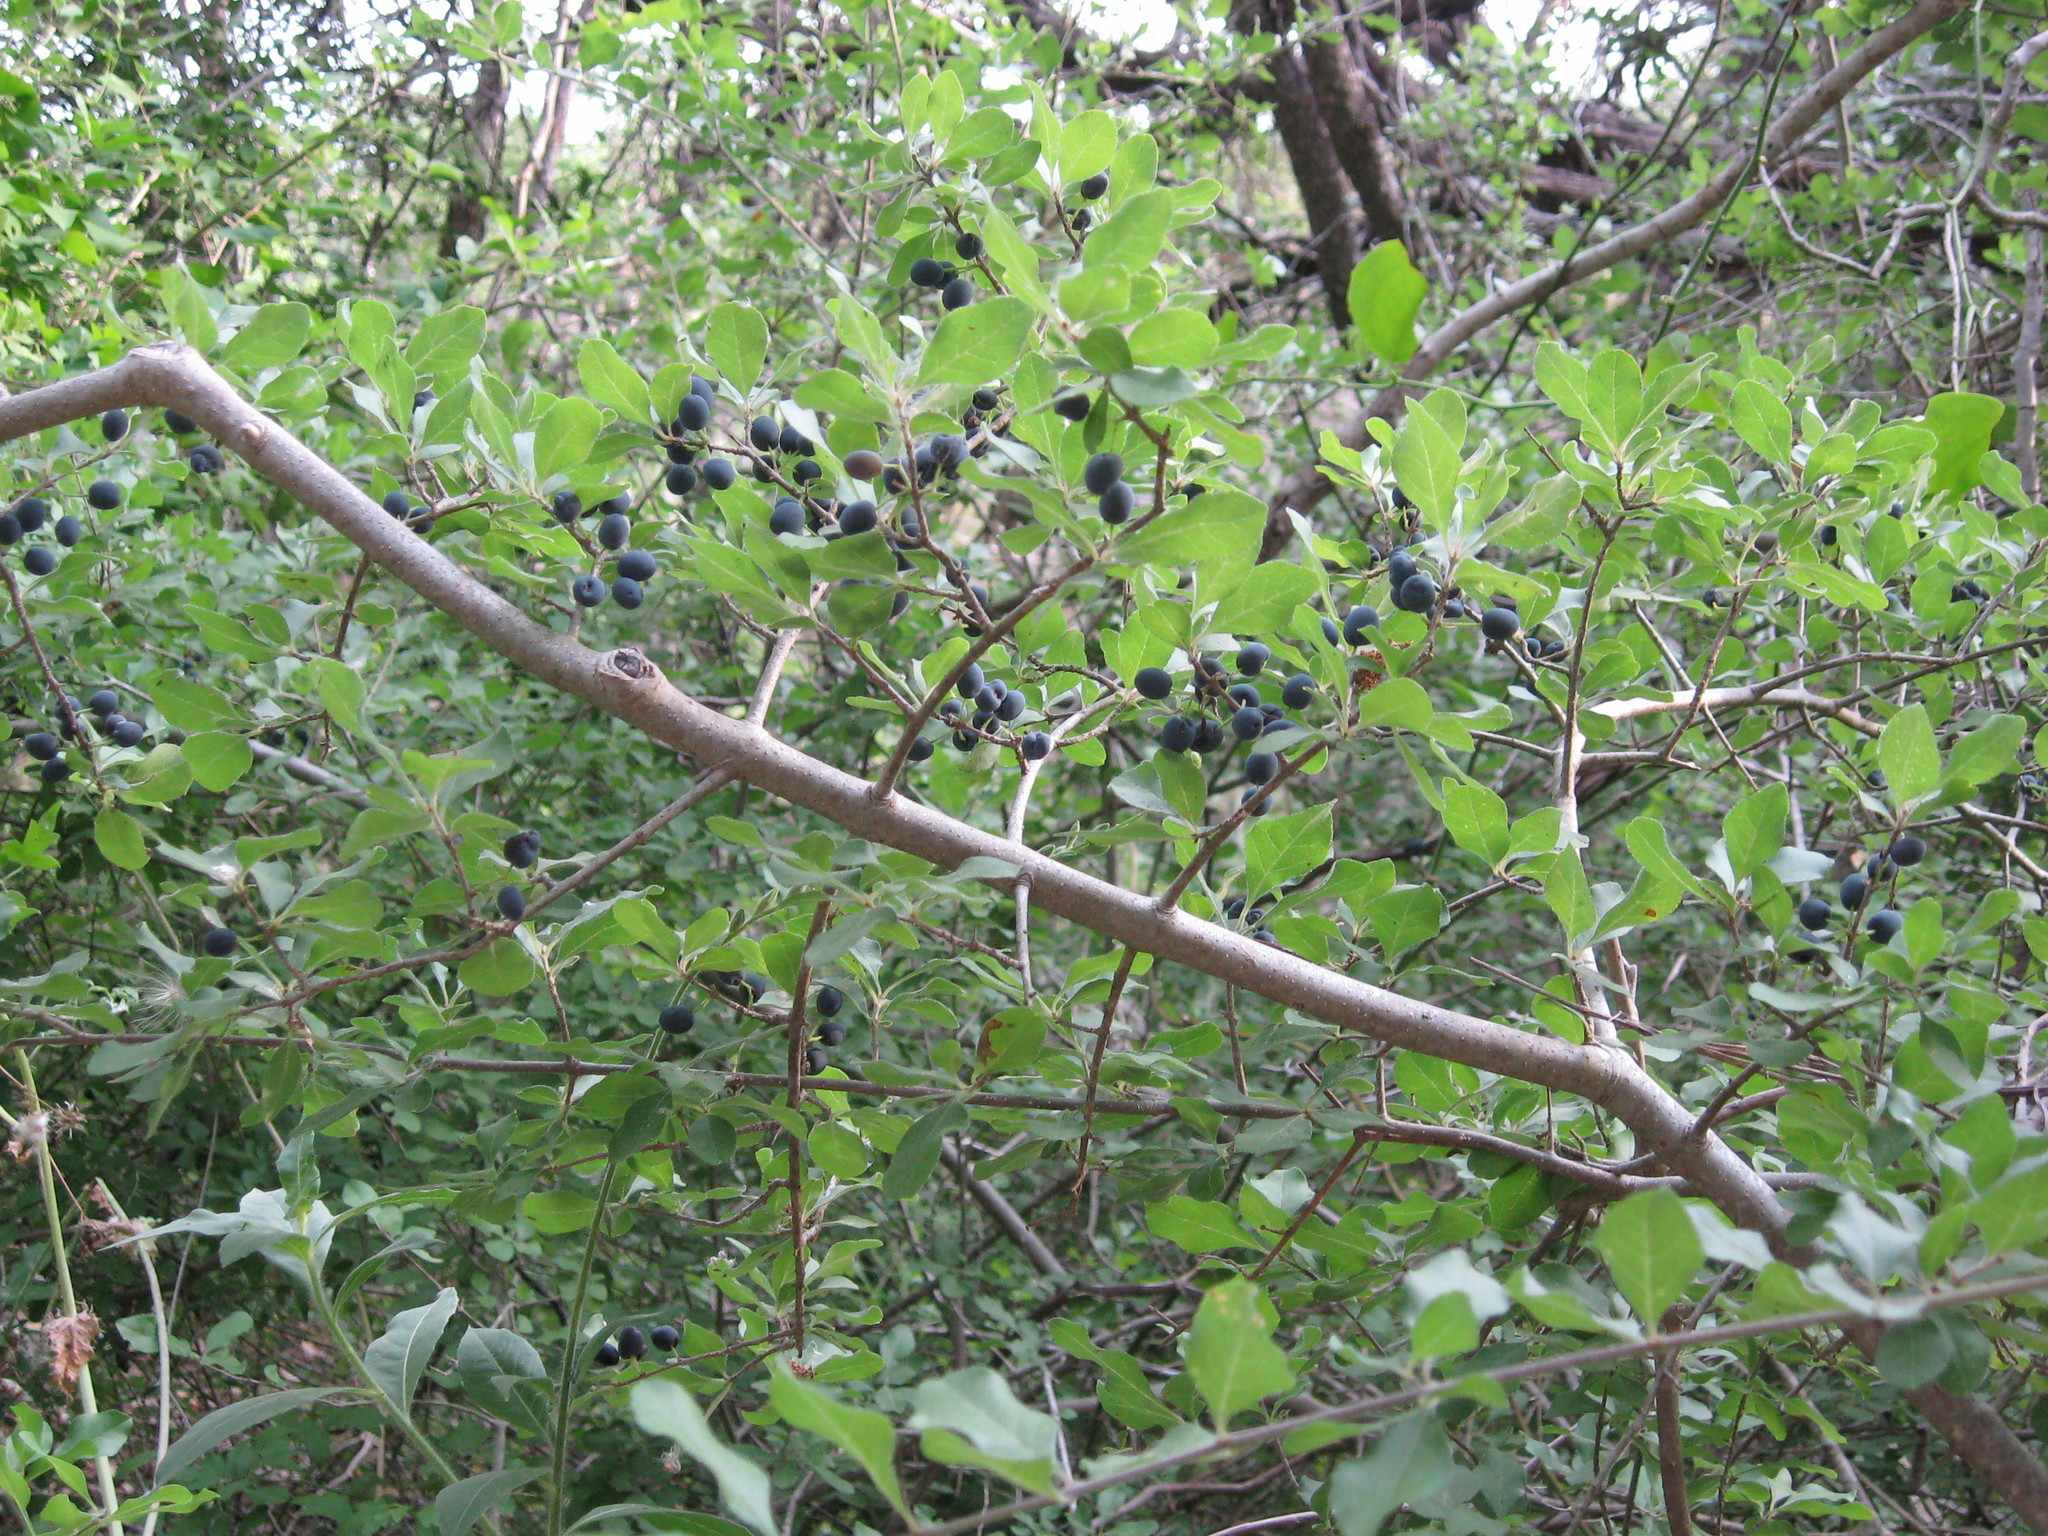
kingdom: Plantae
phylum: Tracheophyta
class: Magnoliopsida
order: Lamiales
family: Oleaceae
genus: Forestiera
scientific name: Forestiera pubescens
